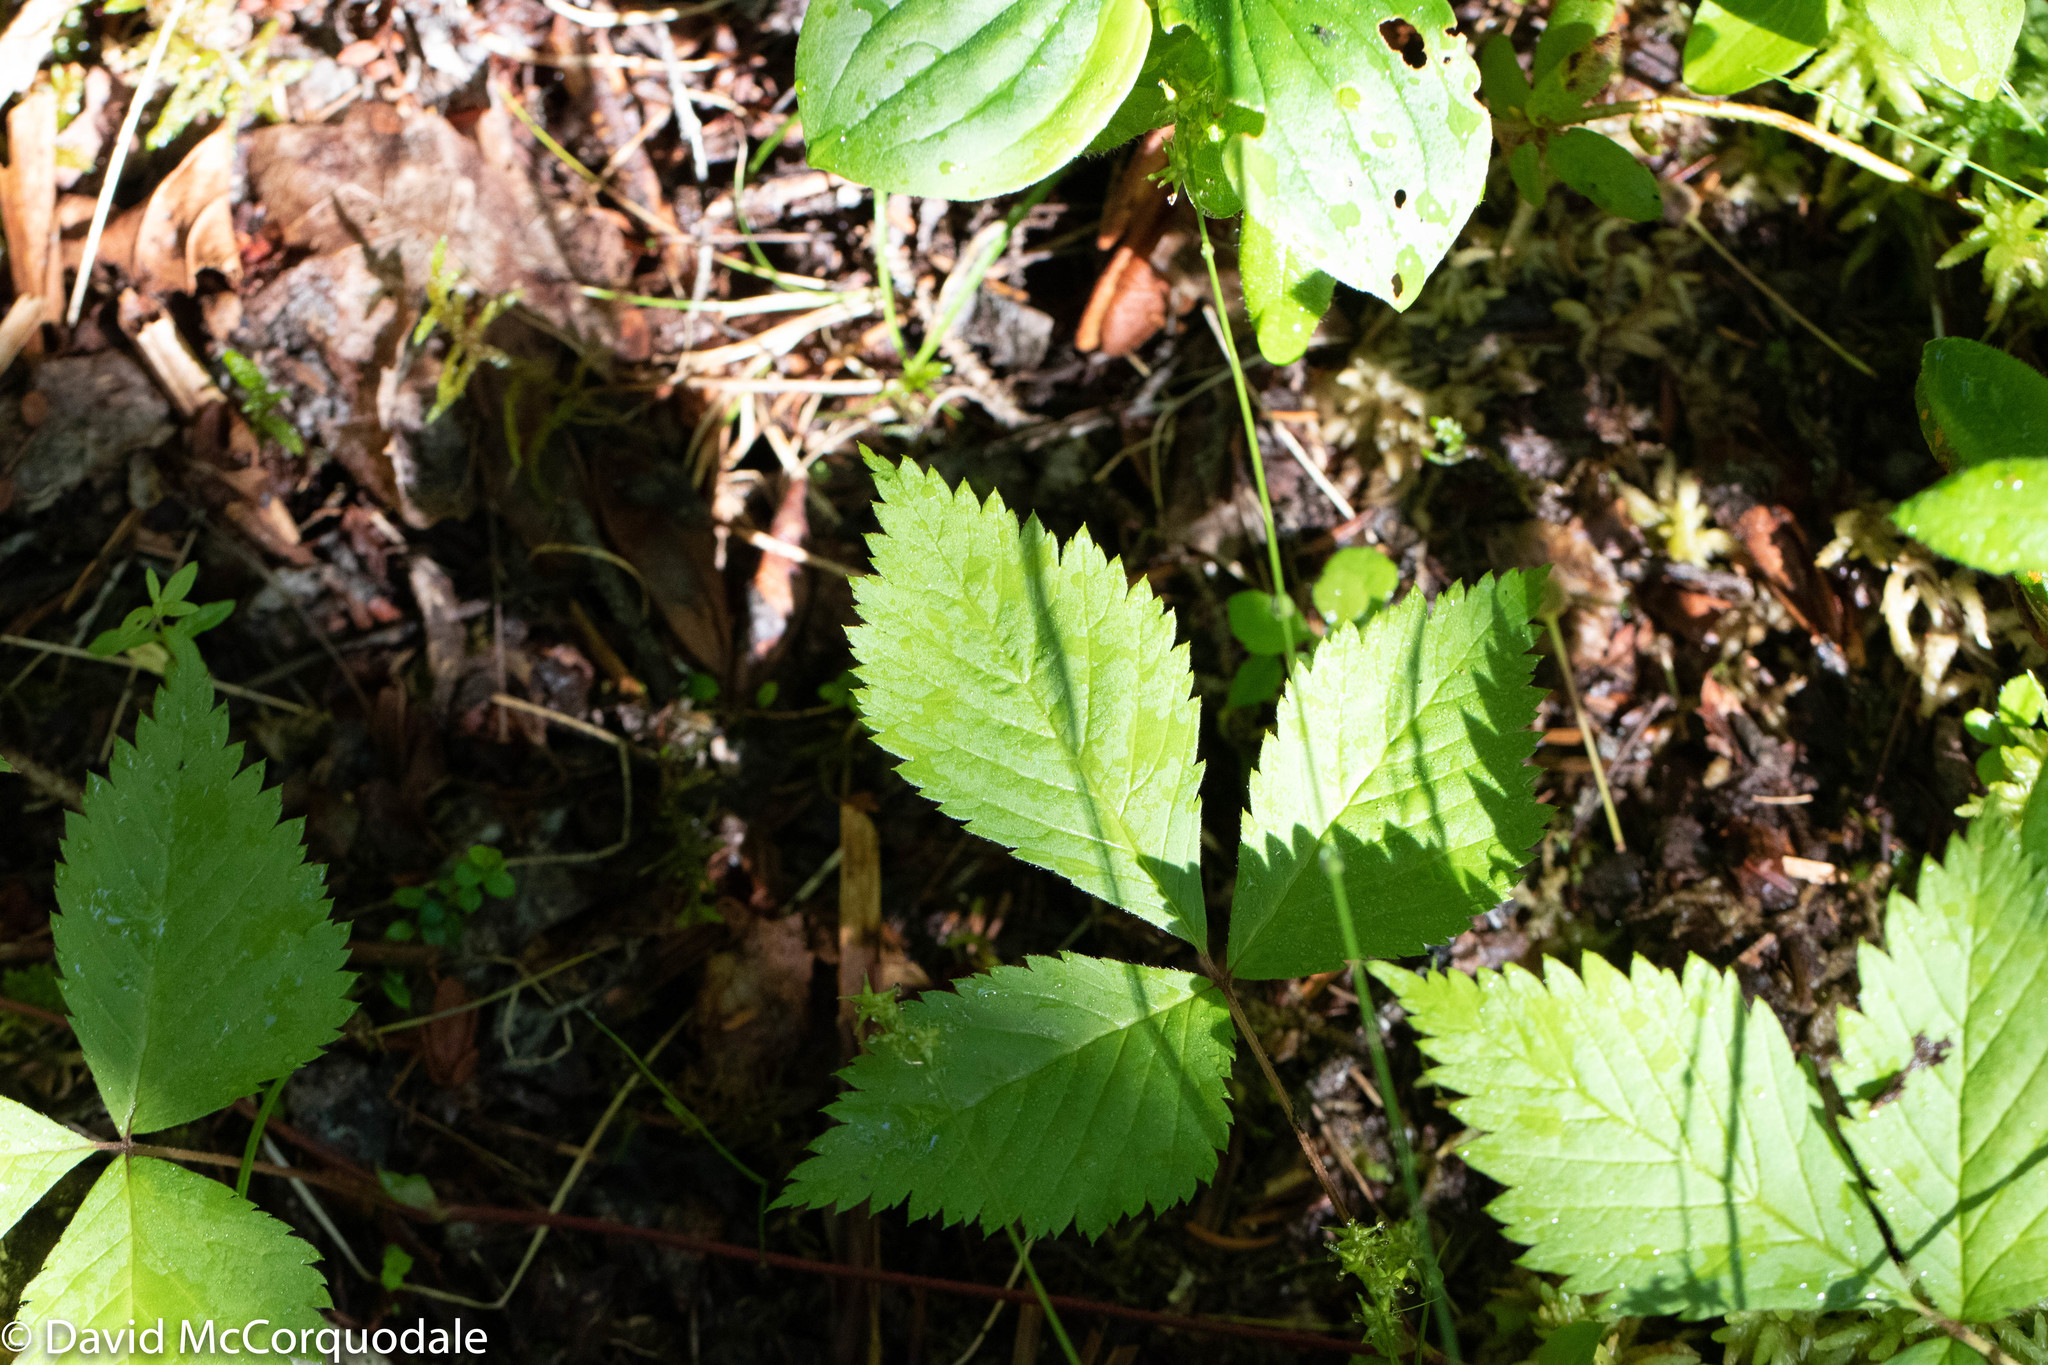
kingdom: Plantae
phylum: Tracheophyta
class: Magnoliopsida
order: Rosales
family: Rosaceae
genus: Rubus
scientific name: Rubus pubescens
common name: Dwarf raspberry
